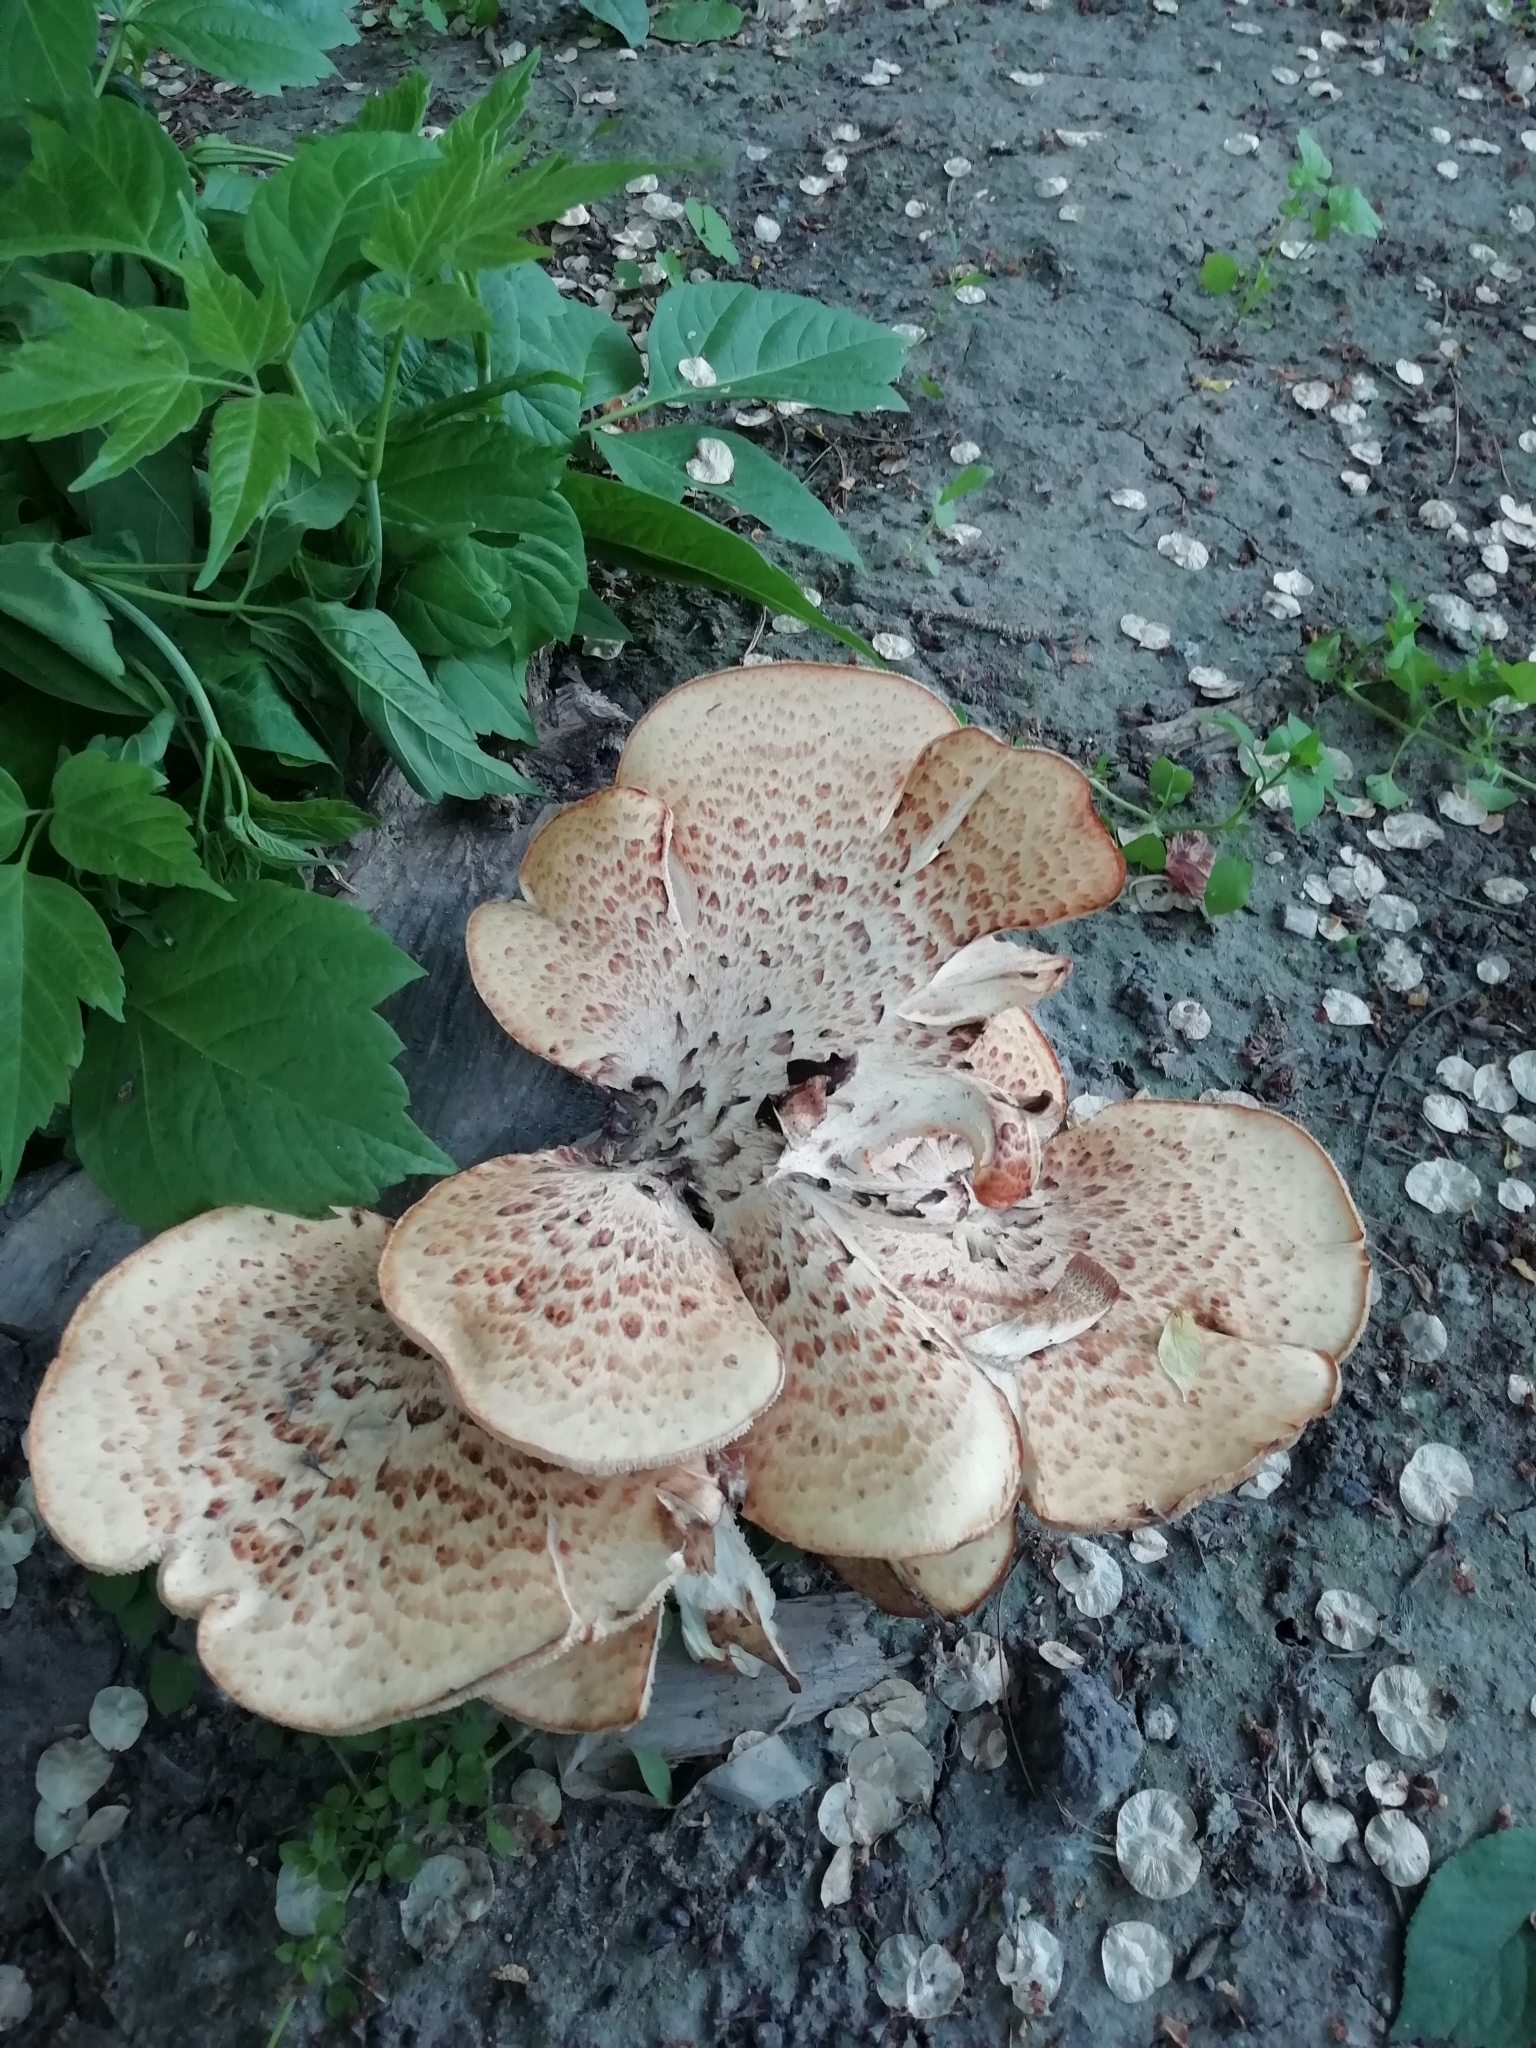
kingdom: Fungi
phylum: Basidiomycota
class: Agaricomycetes
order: Polyporales
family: Polyporaceae
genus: Cerioporus
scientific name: Cerioporus squamosus
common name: Dryad's saddle
